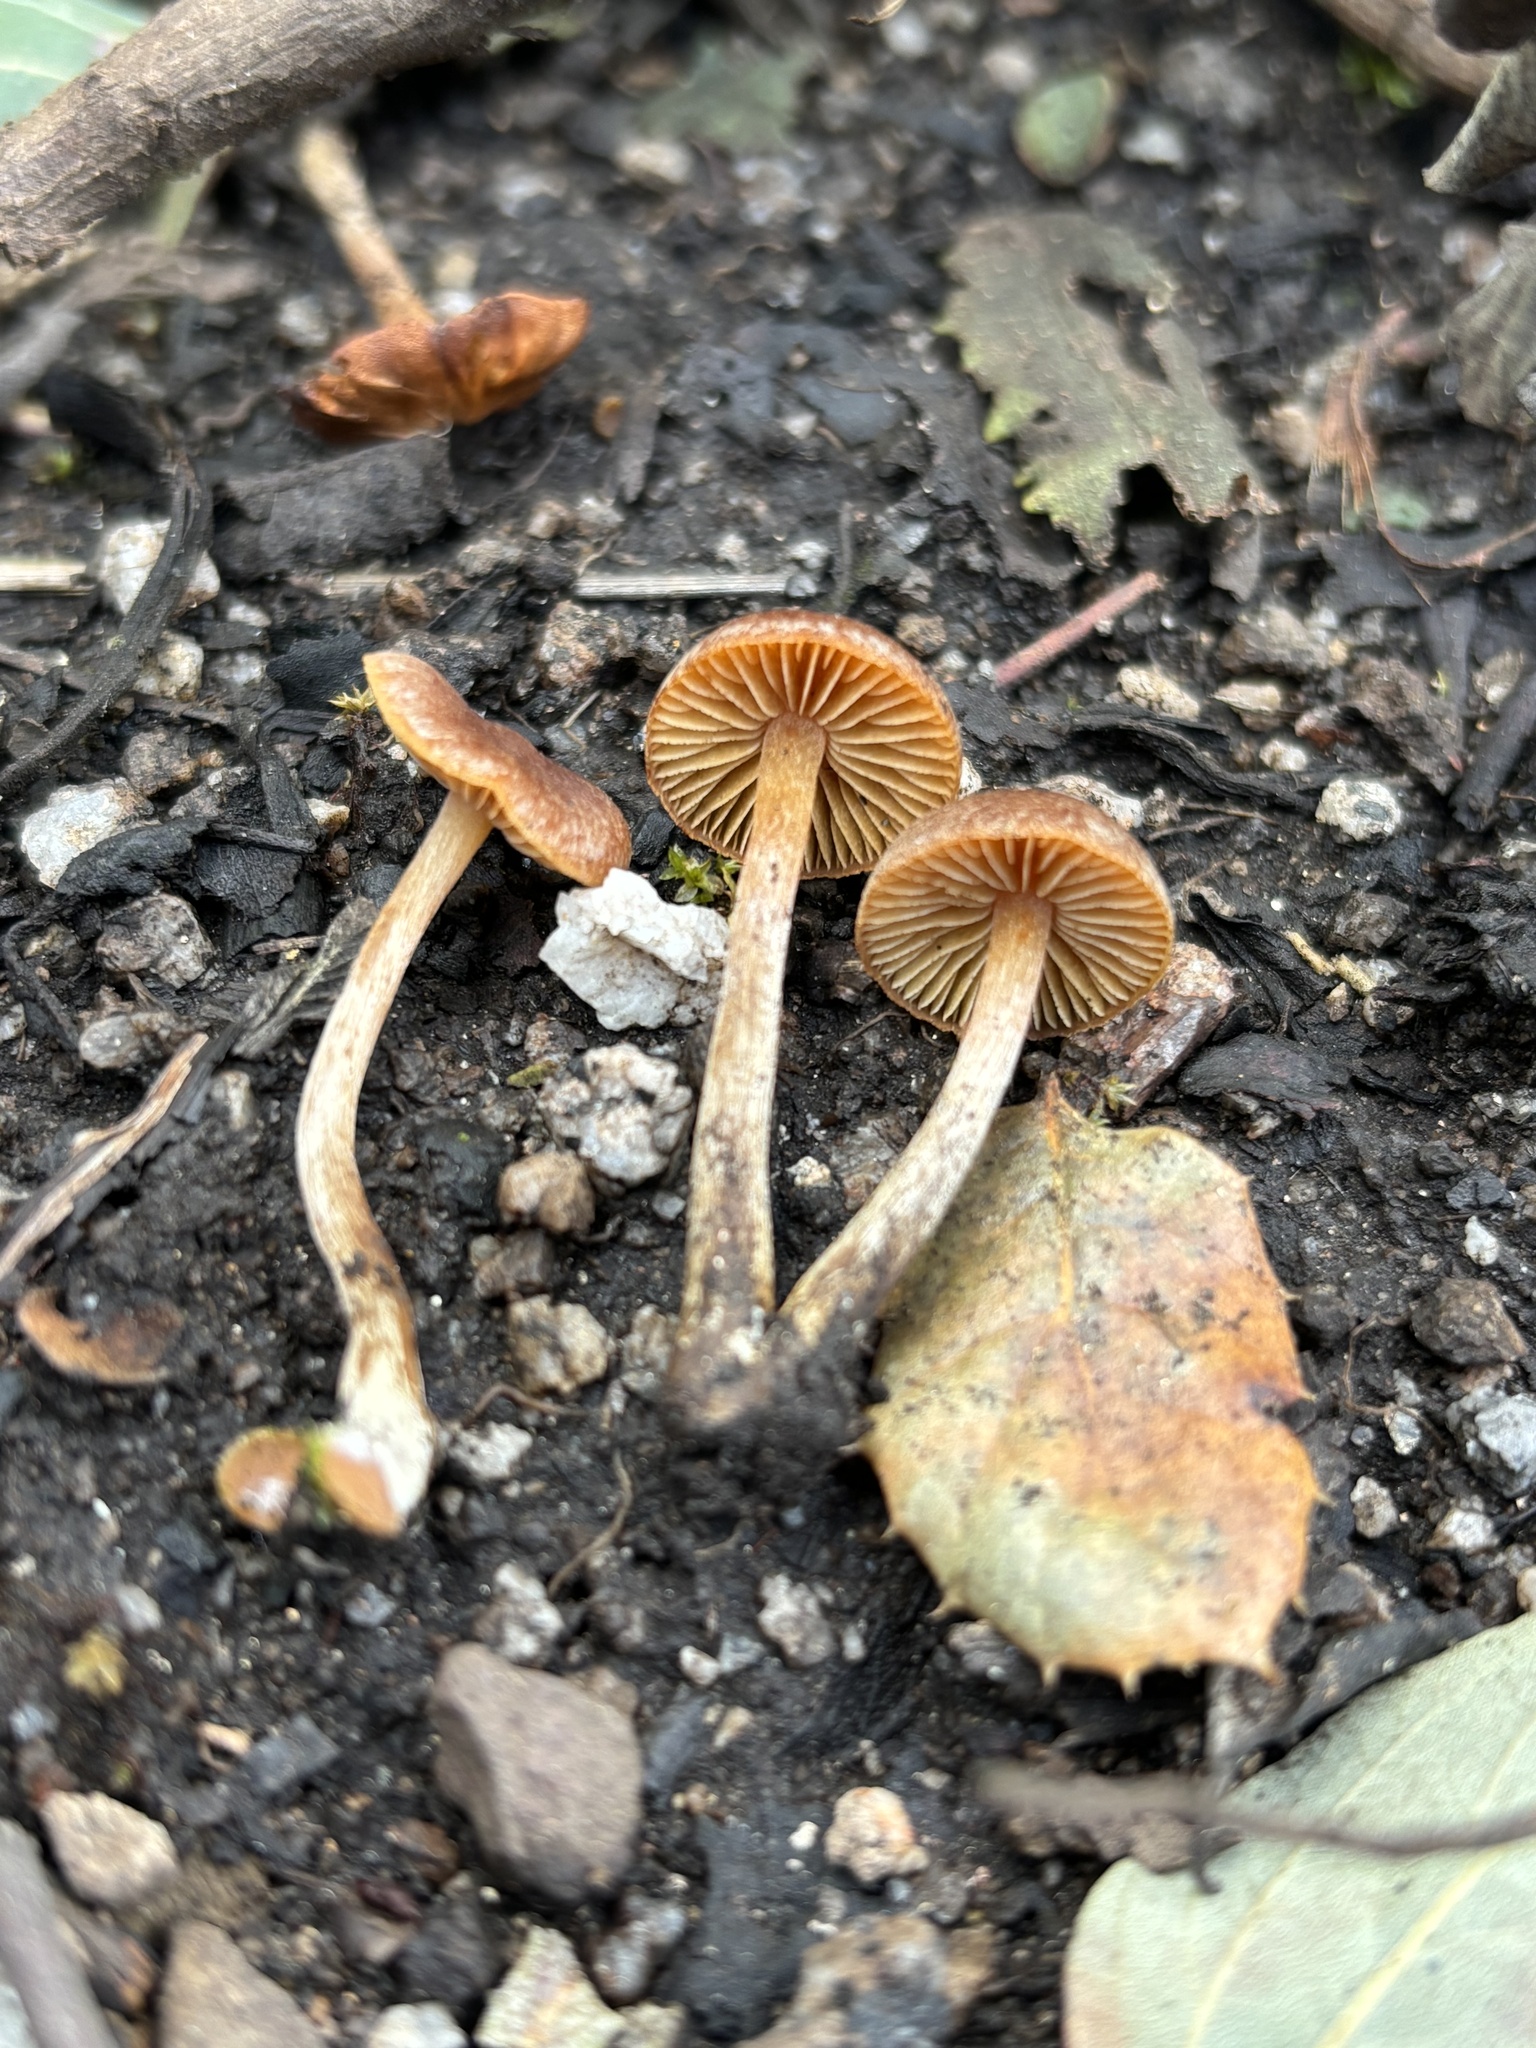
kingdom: Fungi
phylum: Basidiomycota
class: Agaricomycetes
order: Agaricales
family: Crassisporiaceae
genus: Crassisporium
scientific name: Crassisporium funariophilum
